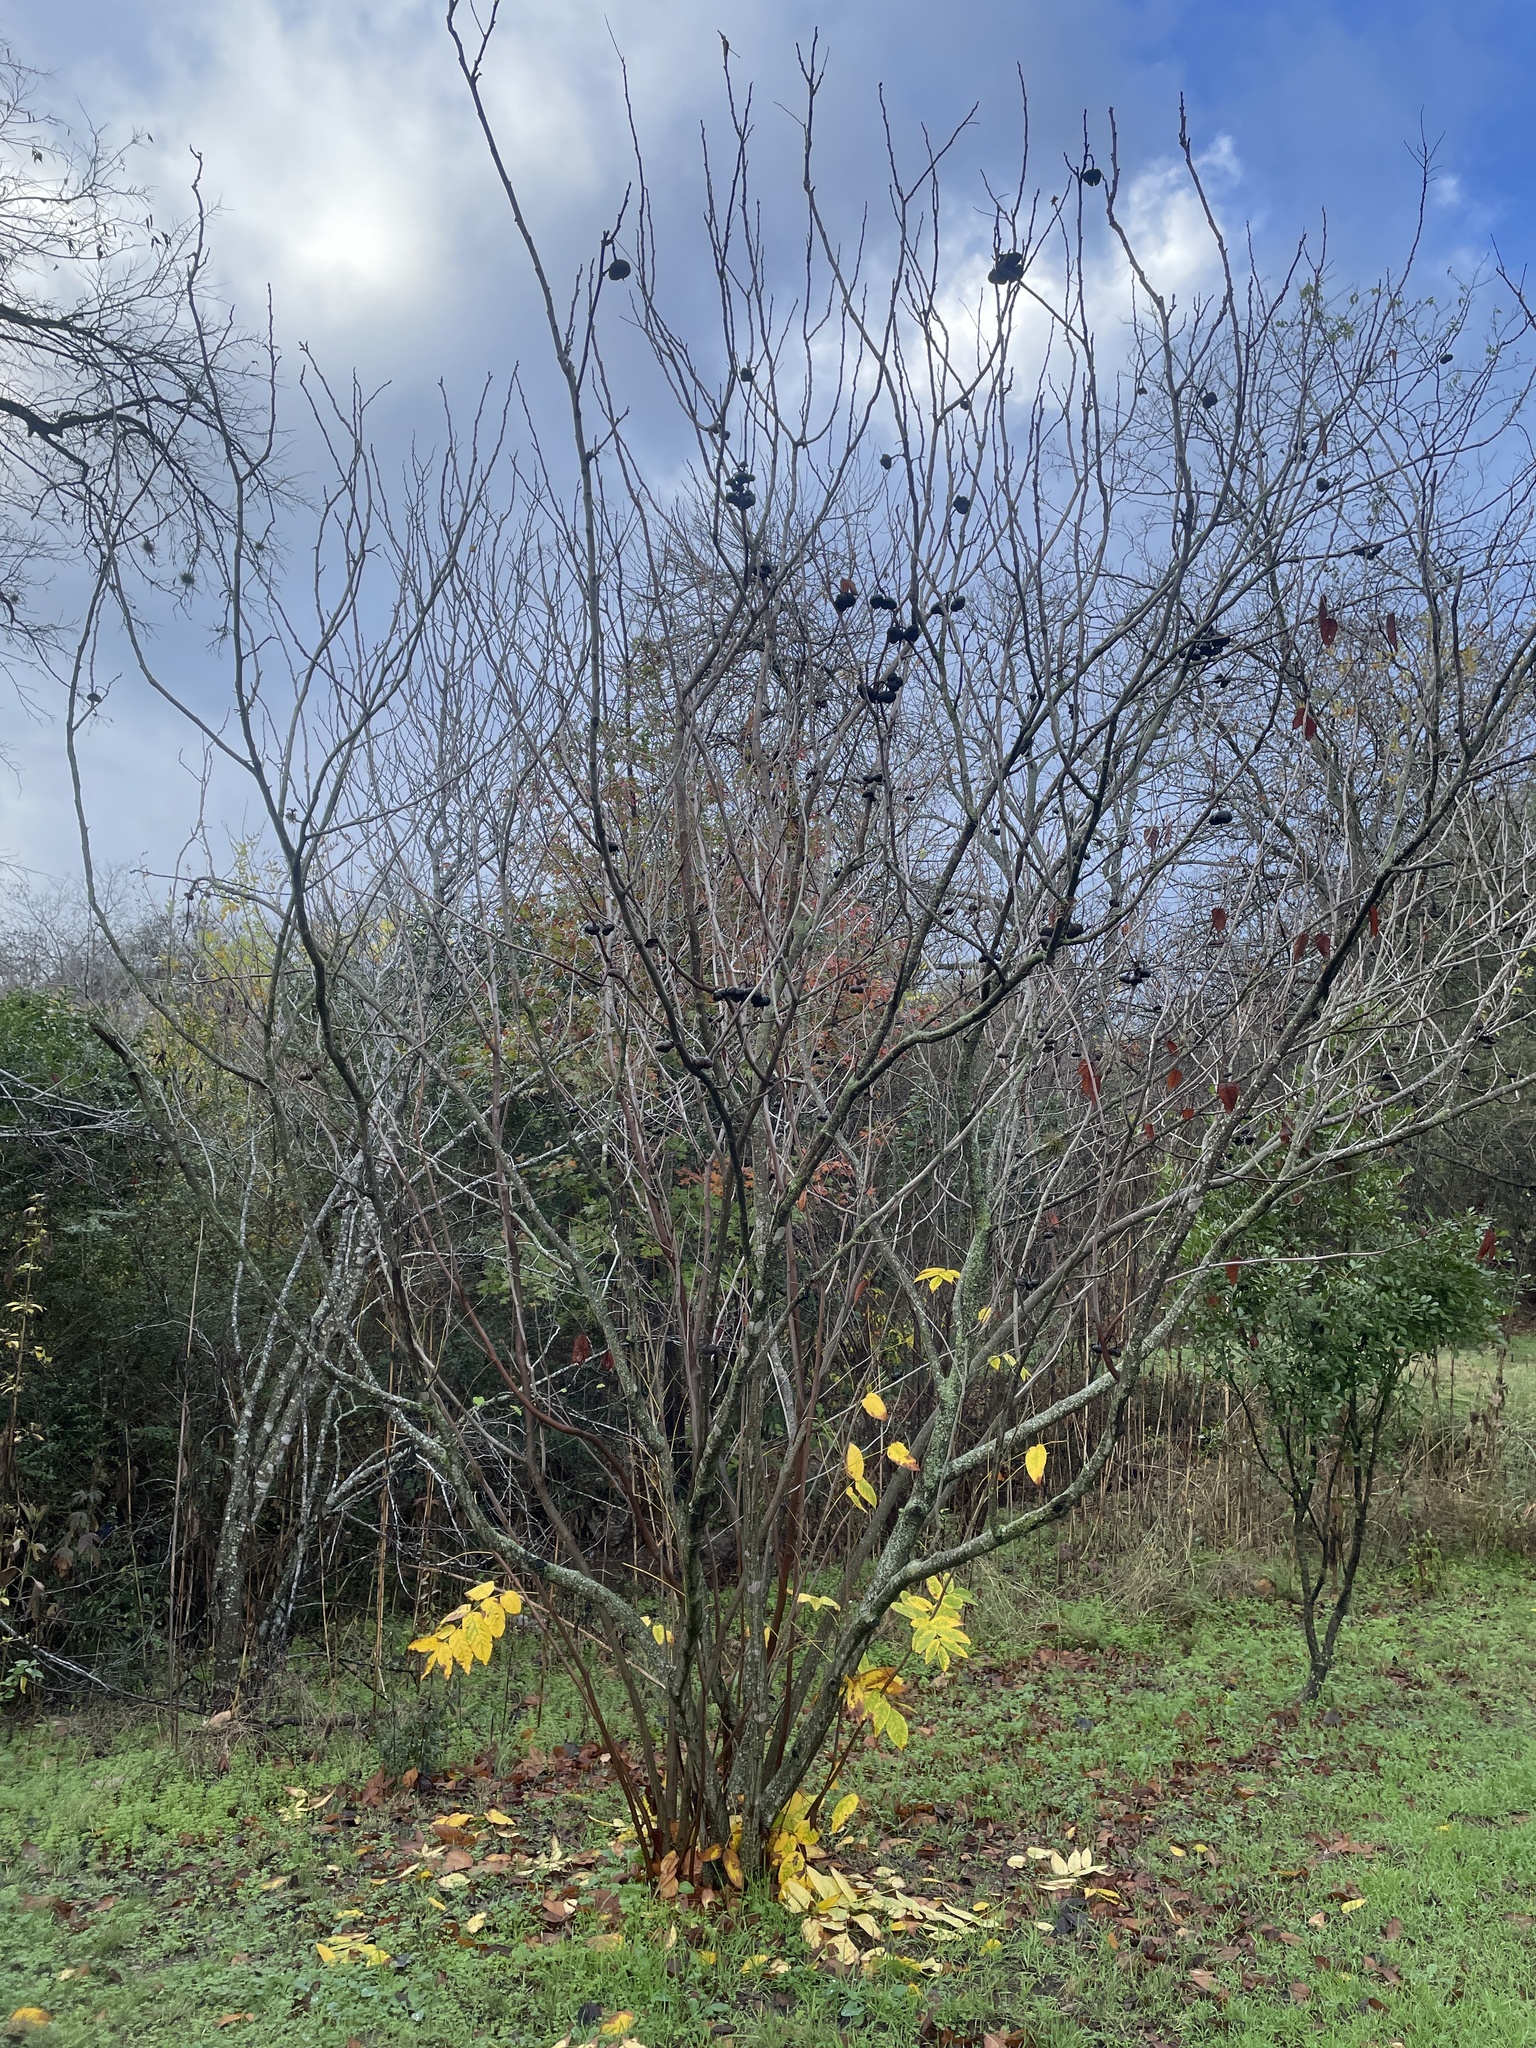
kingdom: Plantae
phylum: Tracheophyta
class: Magnoliopsida
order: Sapindales
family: Sapindaceae
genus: Ungnadia
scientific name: Ungnadia speciosa
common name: Texas-buckeye
